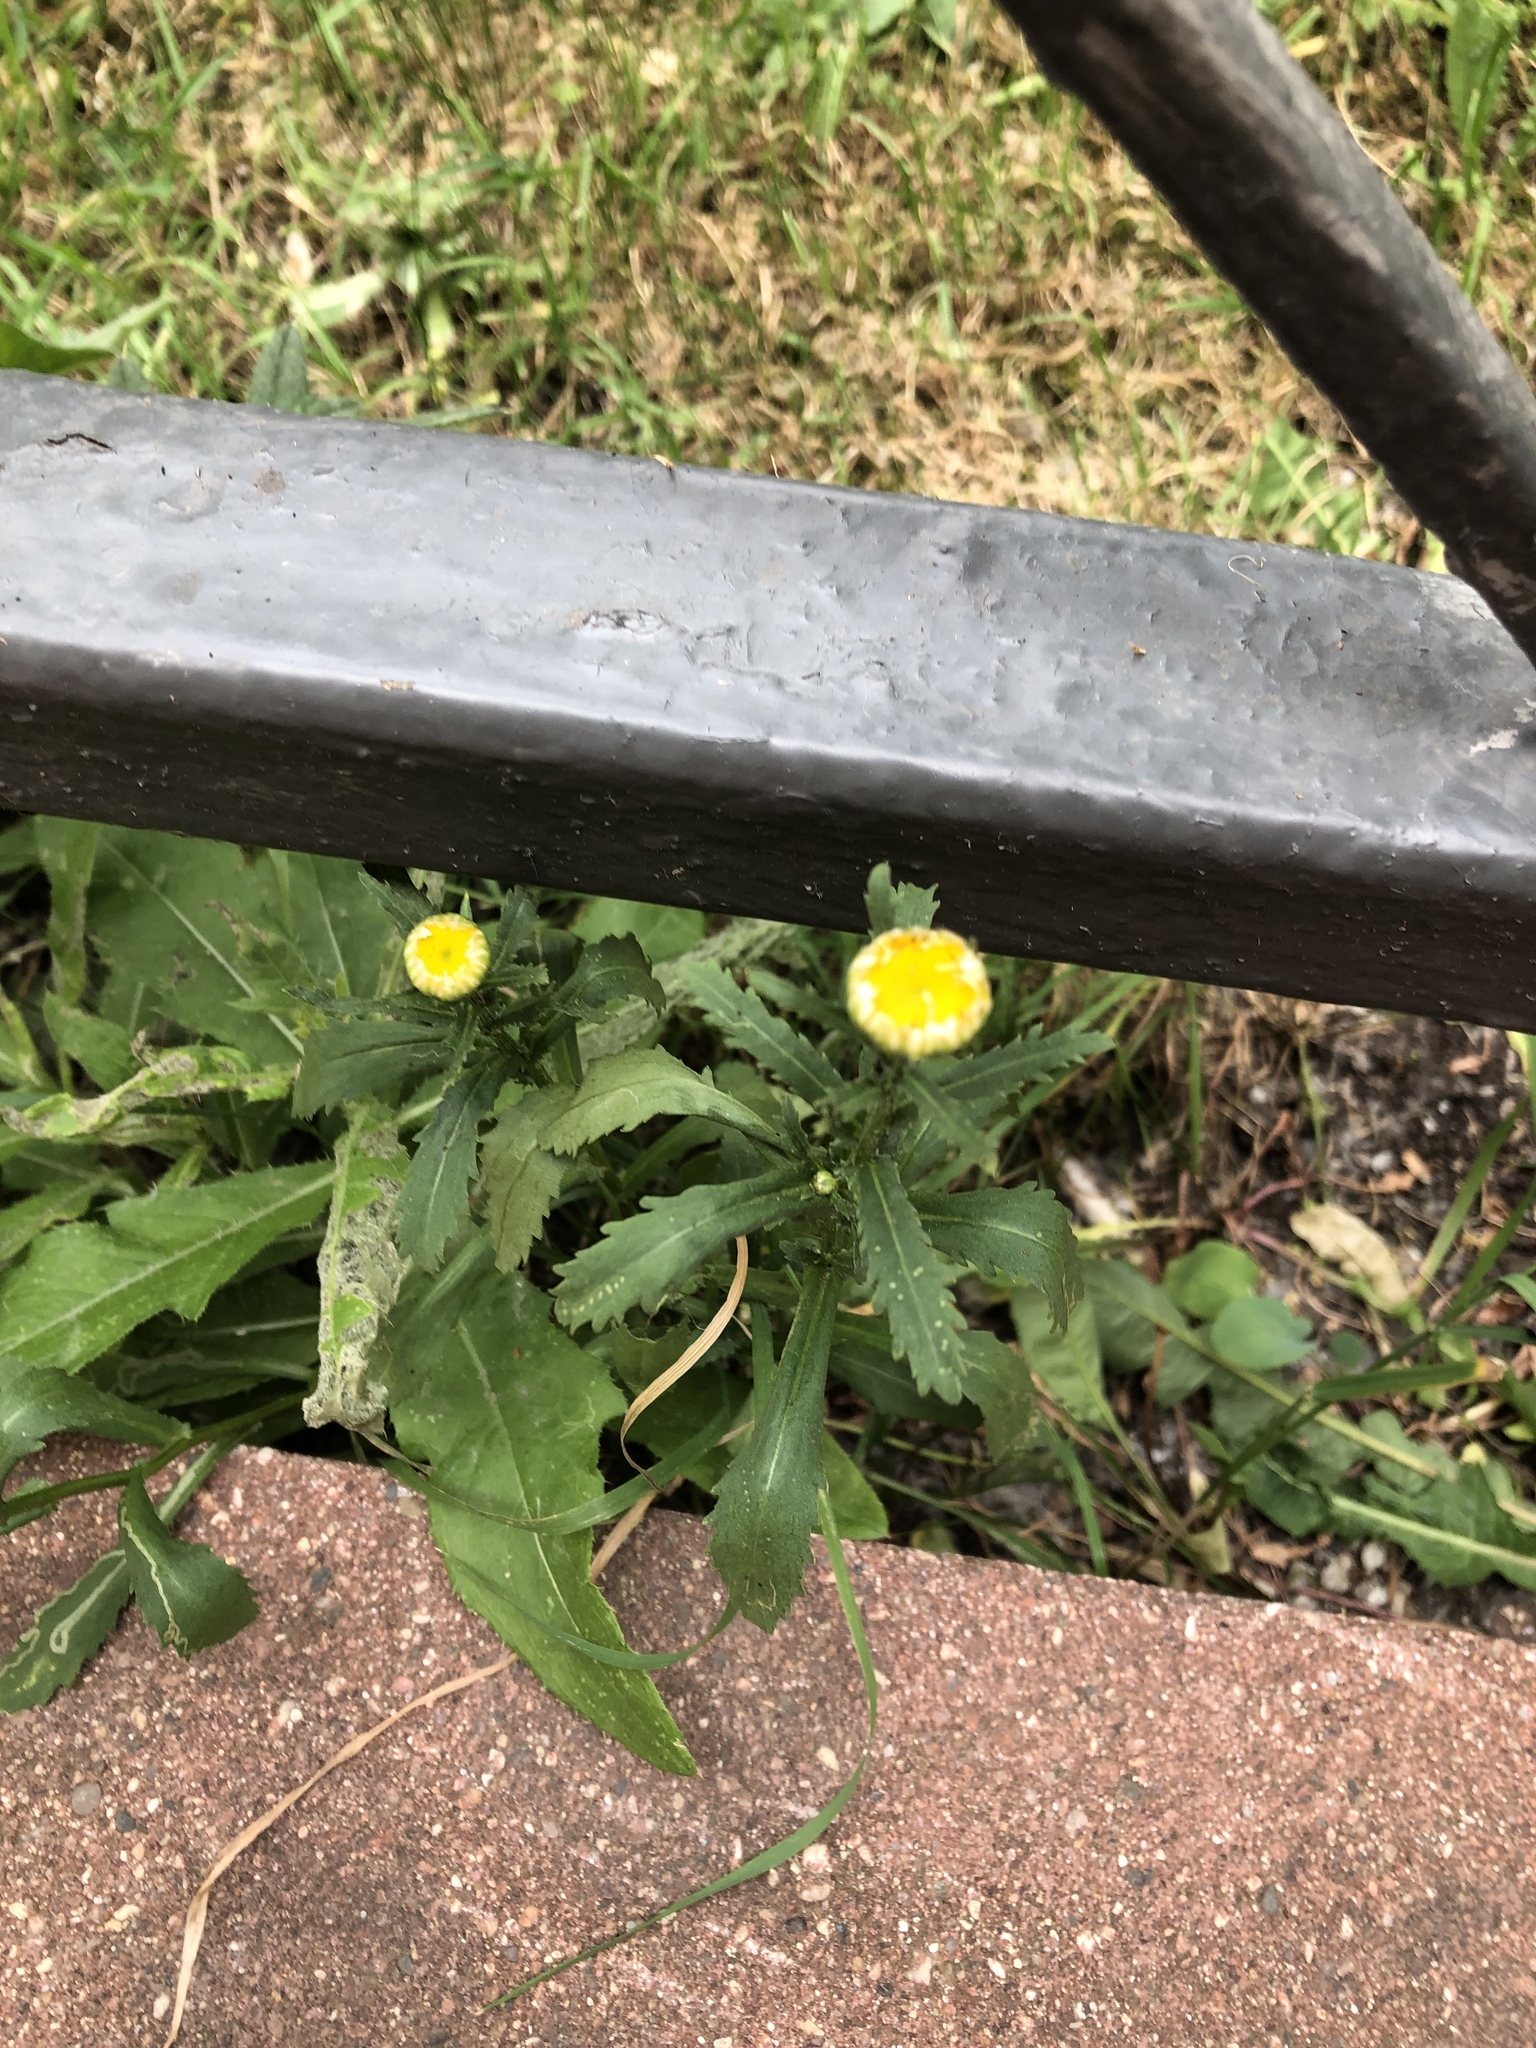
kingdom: Plantae
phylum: Tracheophyta
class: Magnoliopsida
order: Asterales
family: Asteraceae
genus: Leucanthemum
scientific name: Leucanthemum vulgare
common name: Oxeye daisy
